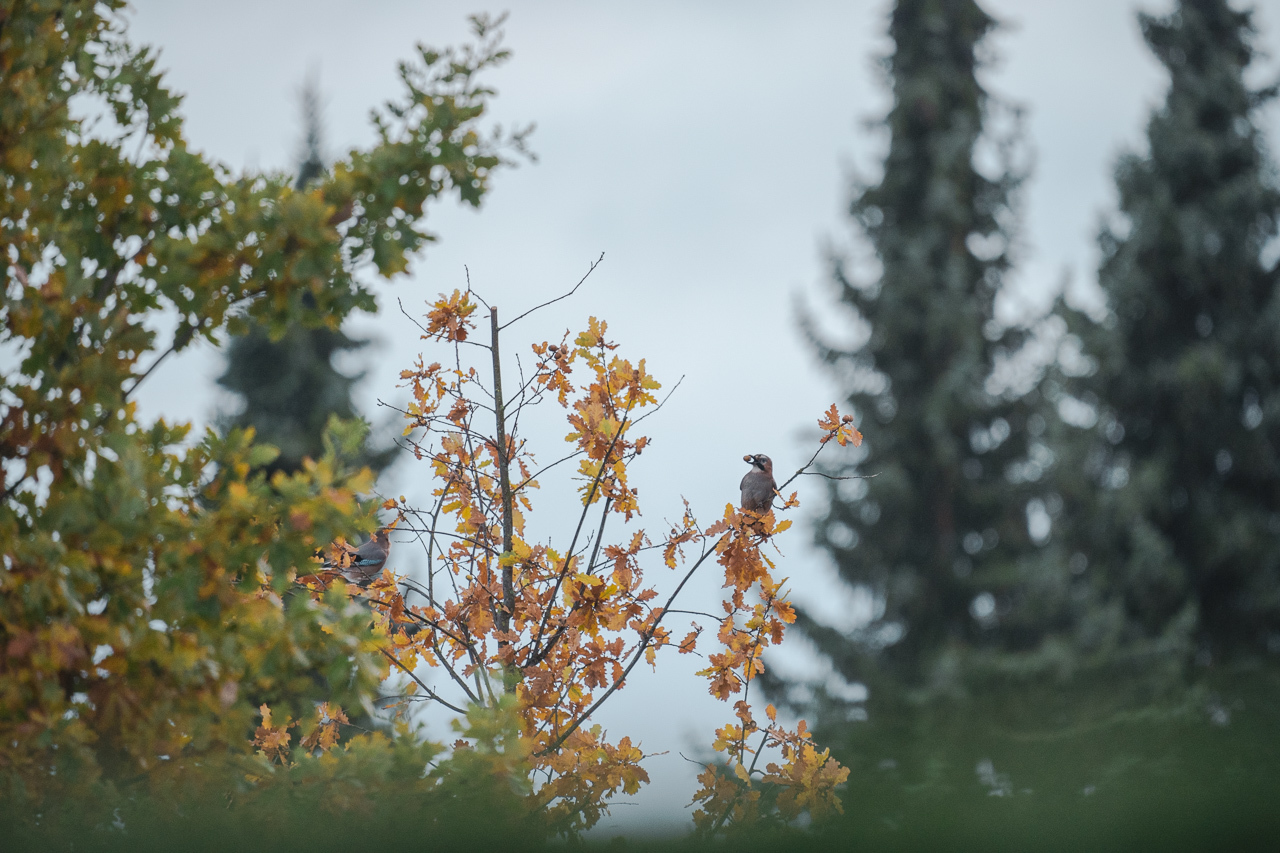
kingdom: Animalia
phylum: Chordata
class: Aves
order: Passeriformes
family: Corvidae
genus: Garrulus
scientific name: Garrulus glandarius
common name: Eurasian jay
